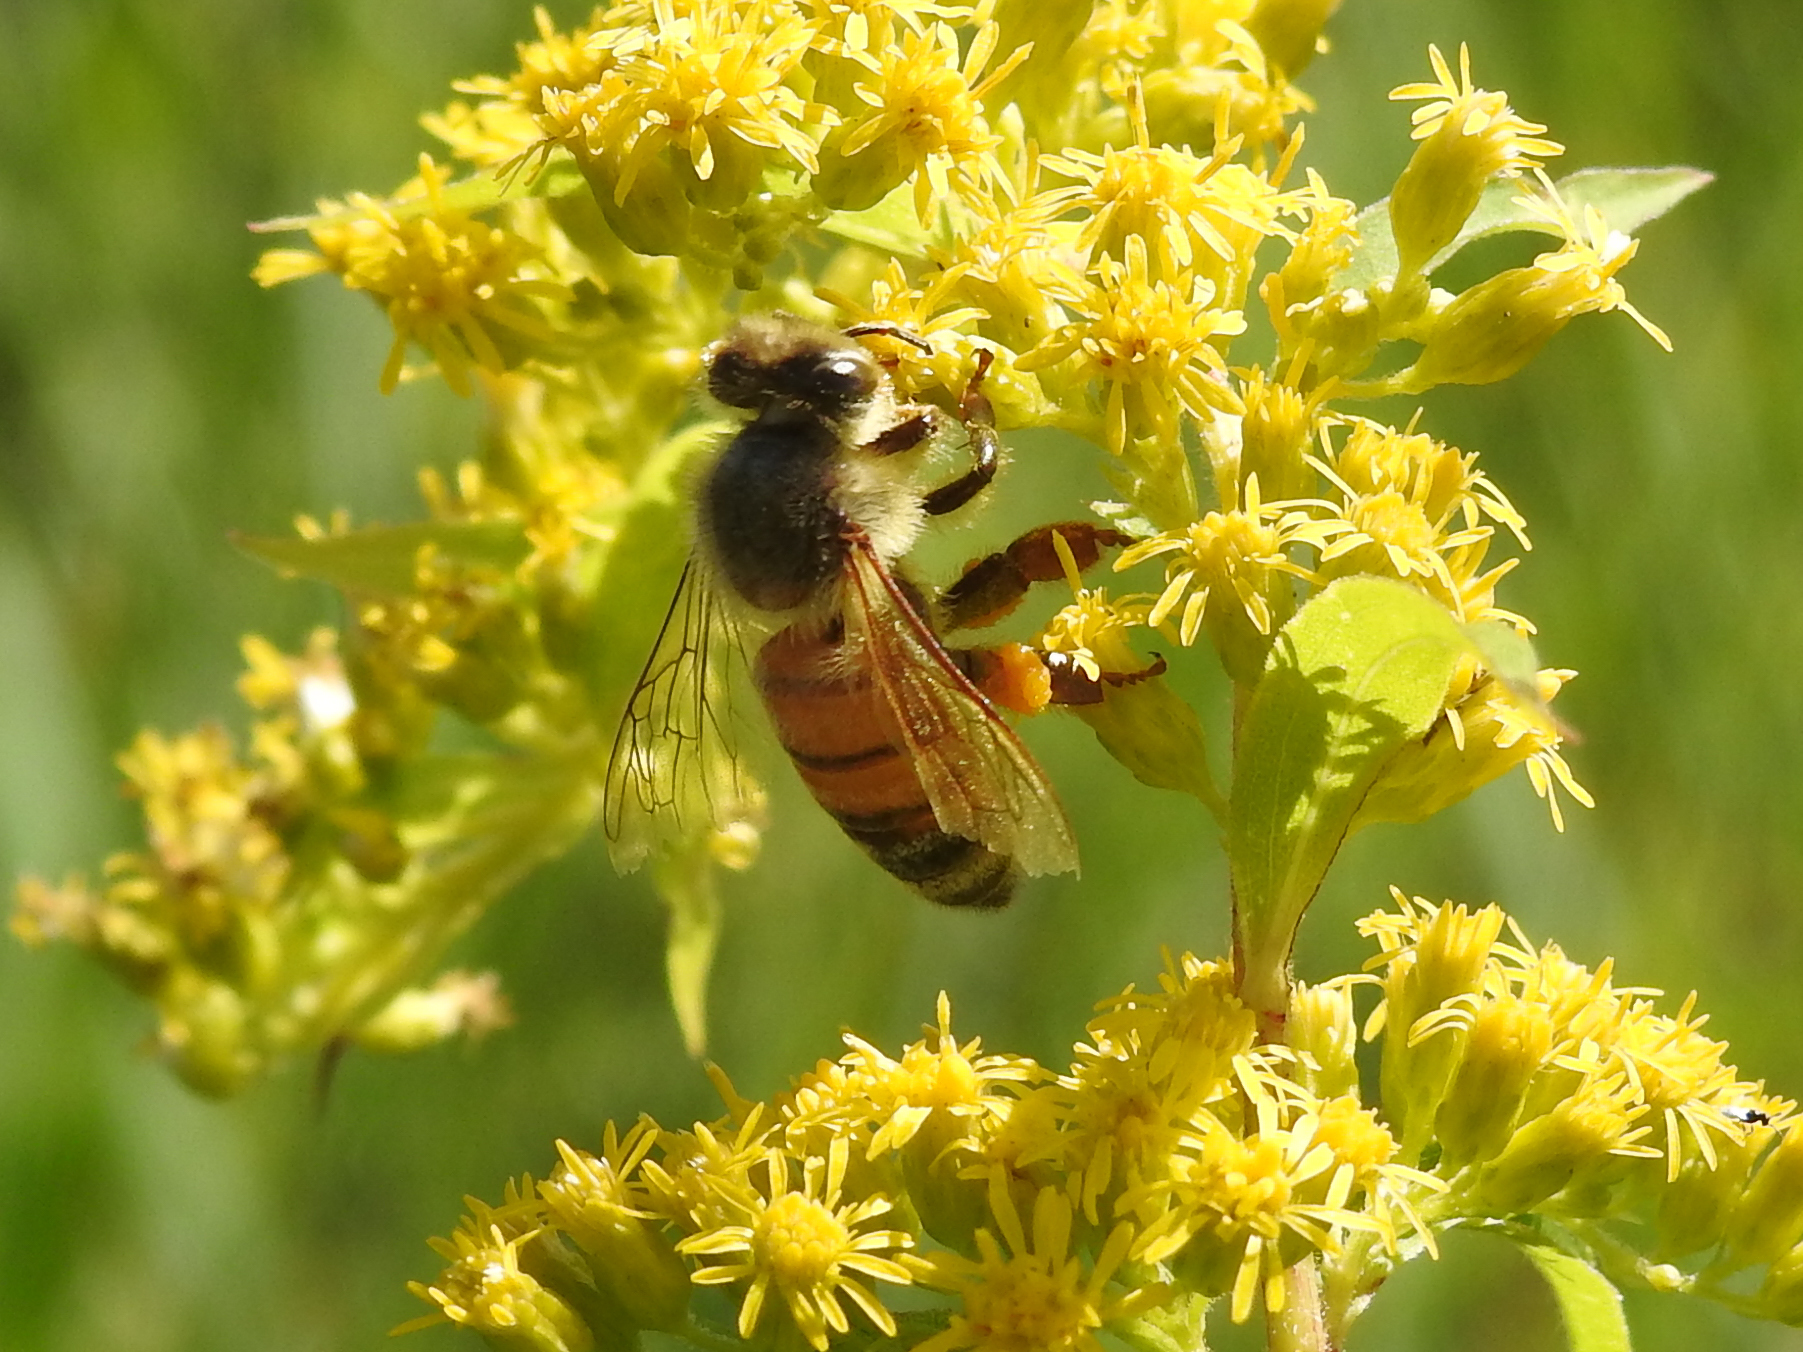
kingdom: Animalia
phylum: Arthropoda
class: Insecta
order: Hymenoptera
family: Apidae
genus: Apis
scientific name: Apis mellifera
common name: Honey bee
